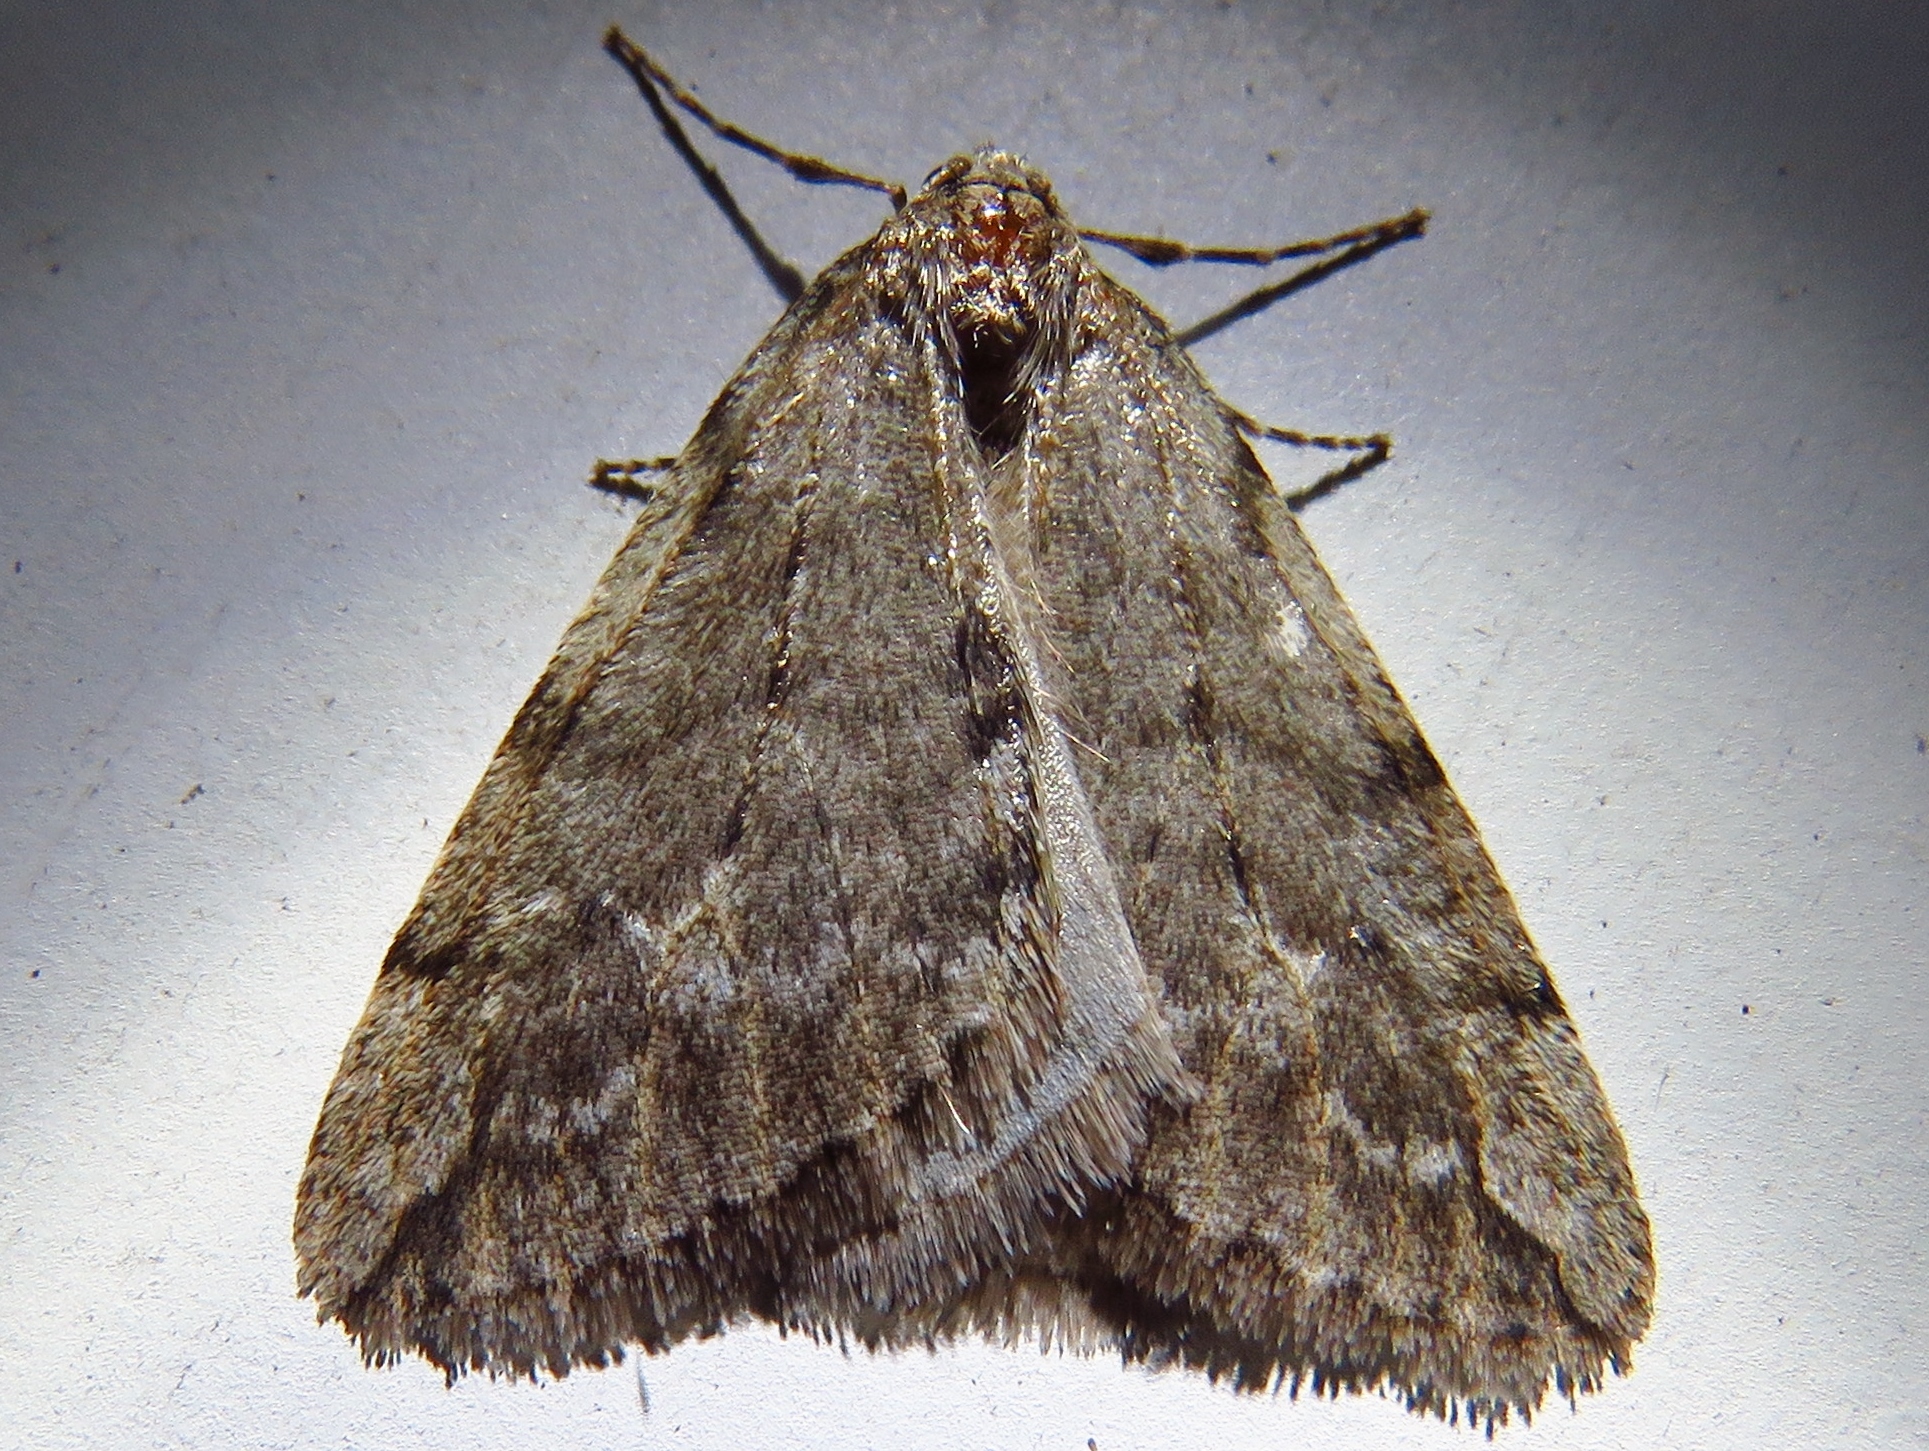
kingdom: Animalia
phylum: Arthropoda
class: Insecta
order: Lepidoptera
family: Geometridae
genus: Paleacrita
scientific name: Paleacrita vernata
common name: Spring cankerworm
